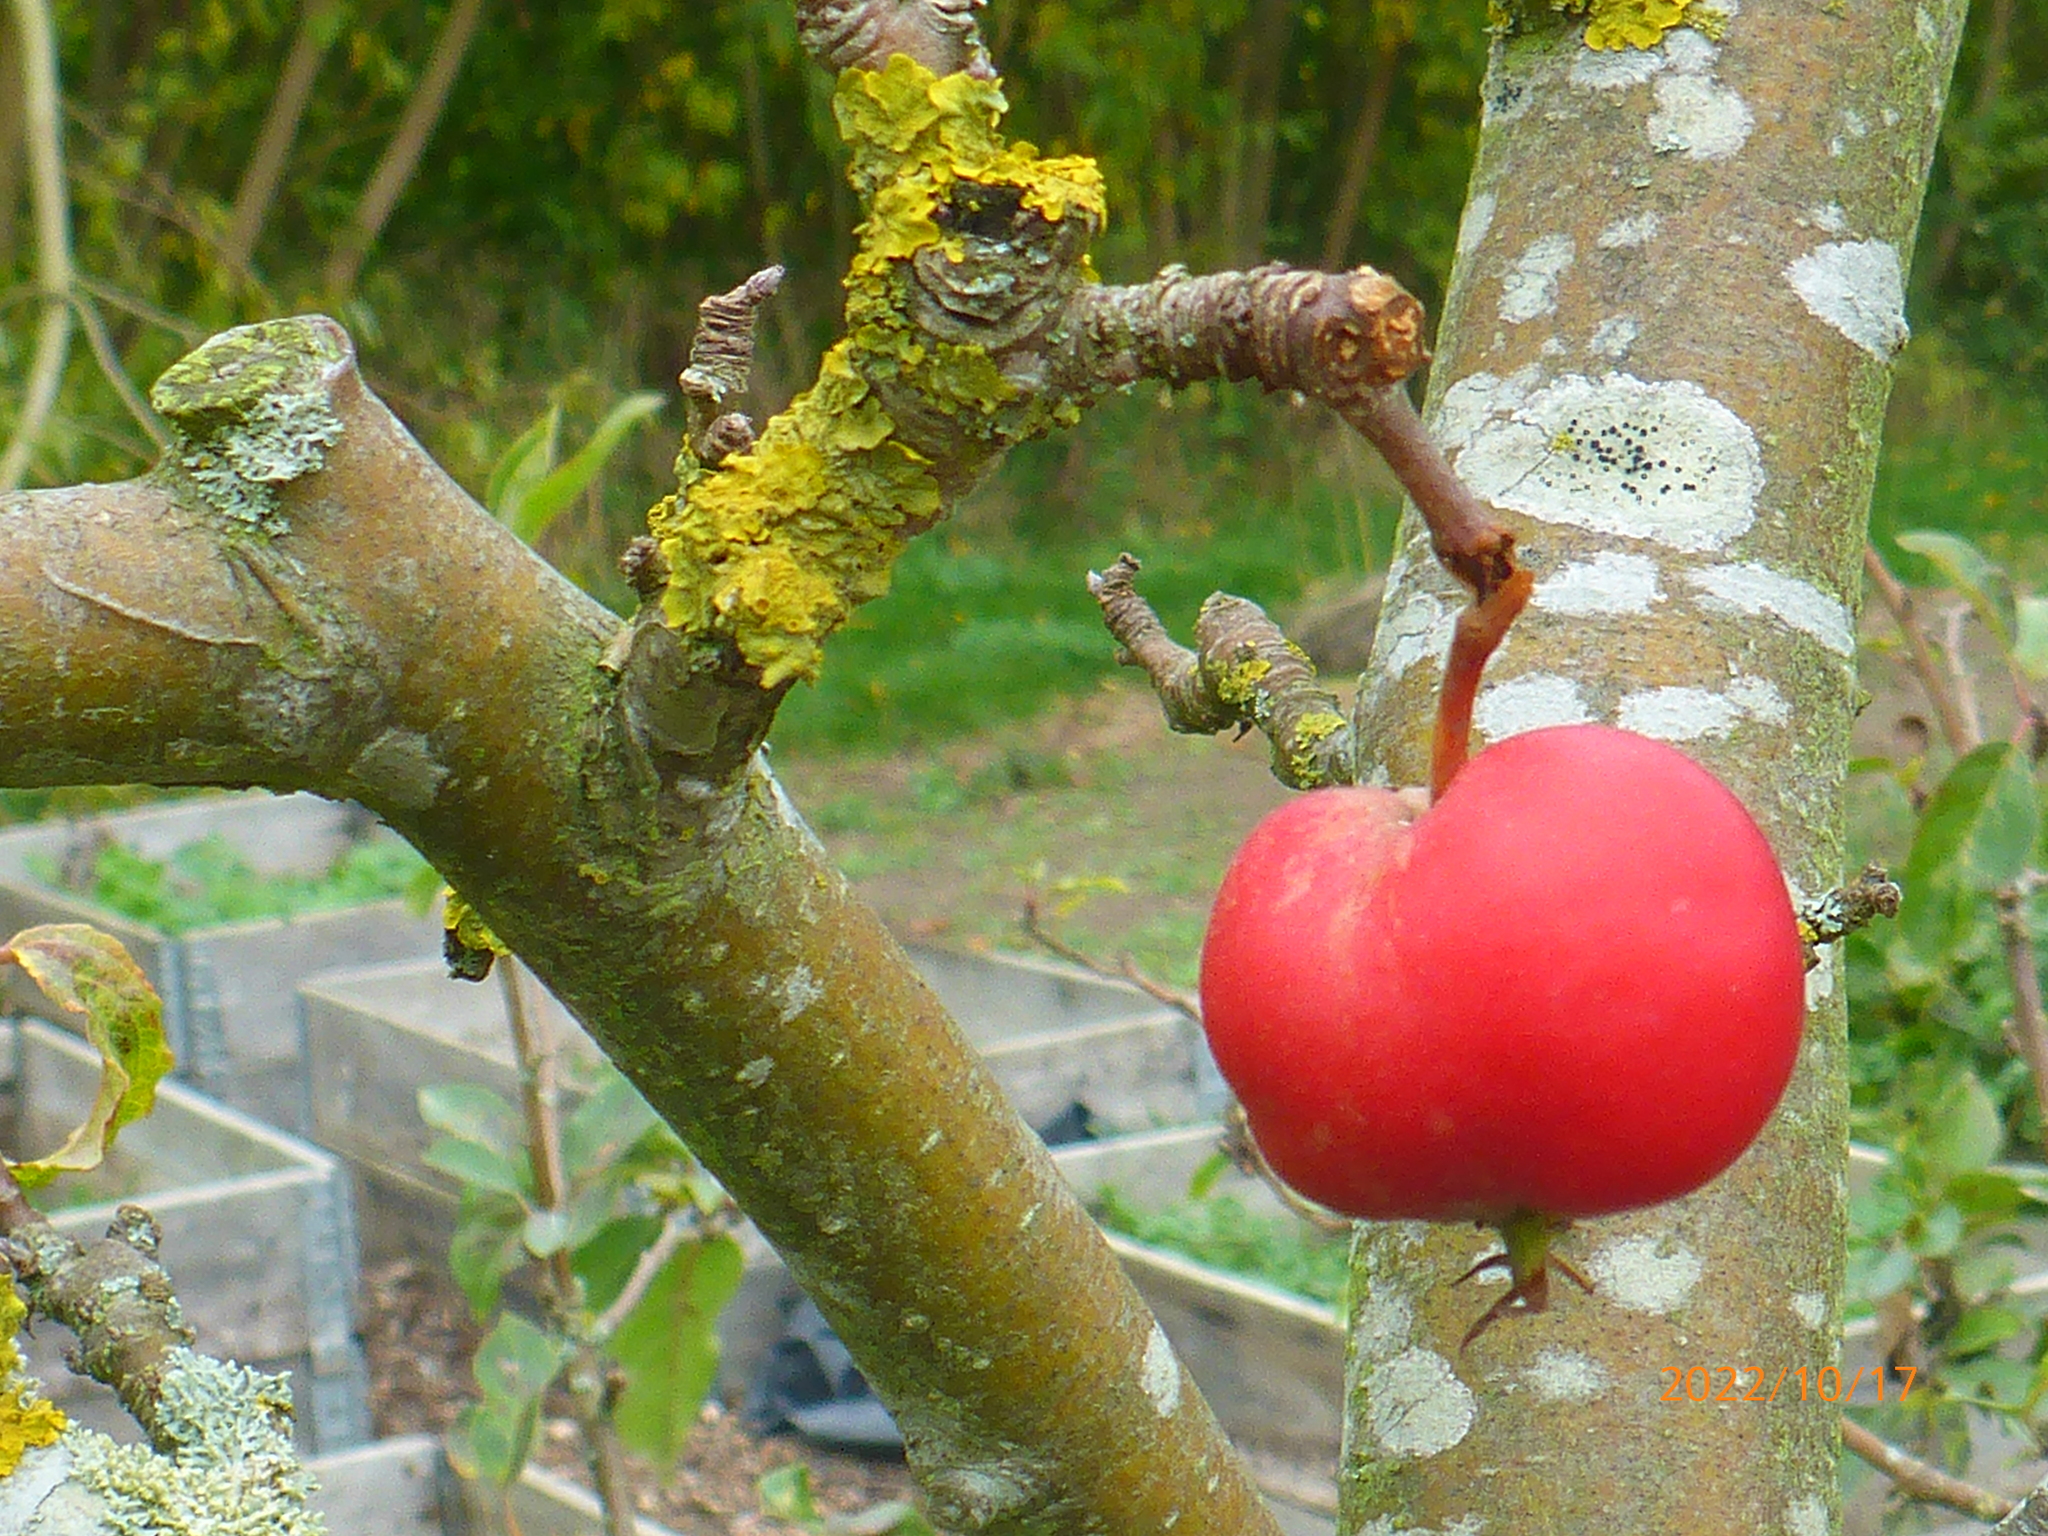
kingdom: Fungi
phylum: Ascomycota
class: Lecanoromycetes
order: Teloschistales
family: Teloschistaceae
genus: Xanthoria
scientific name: Xanthoria parietina
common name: Common orange lichen
